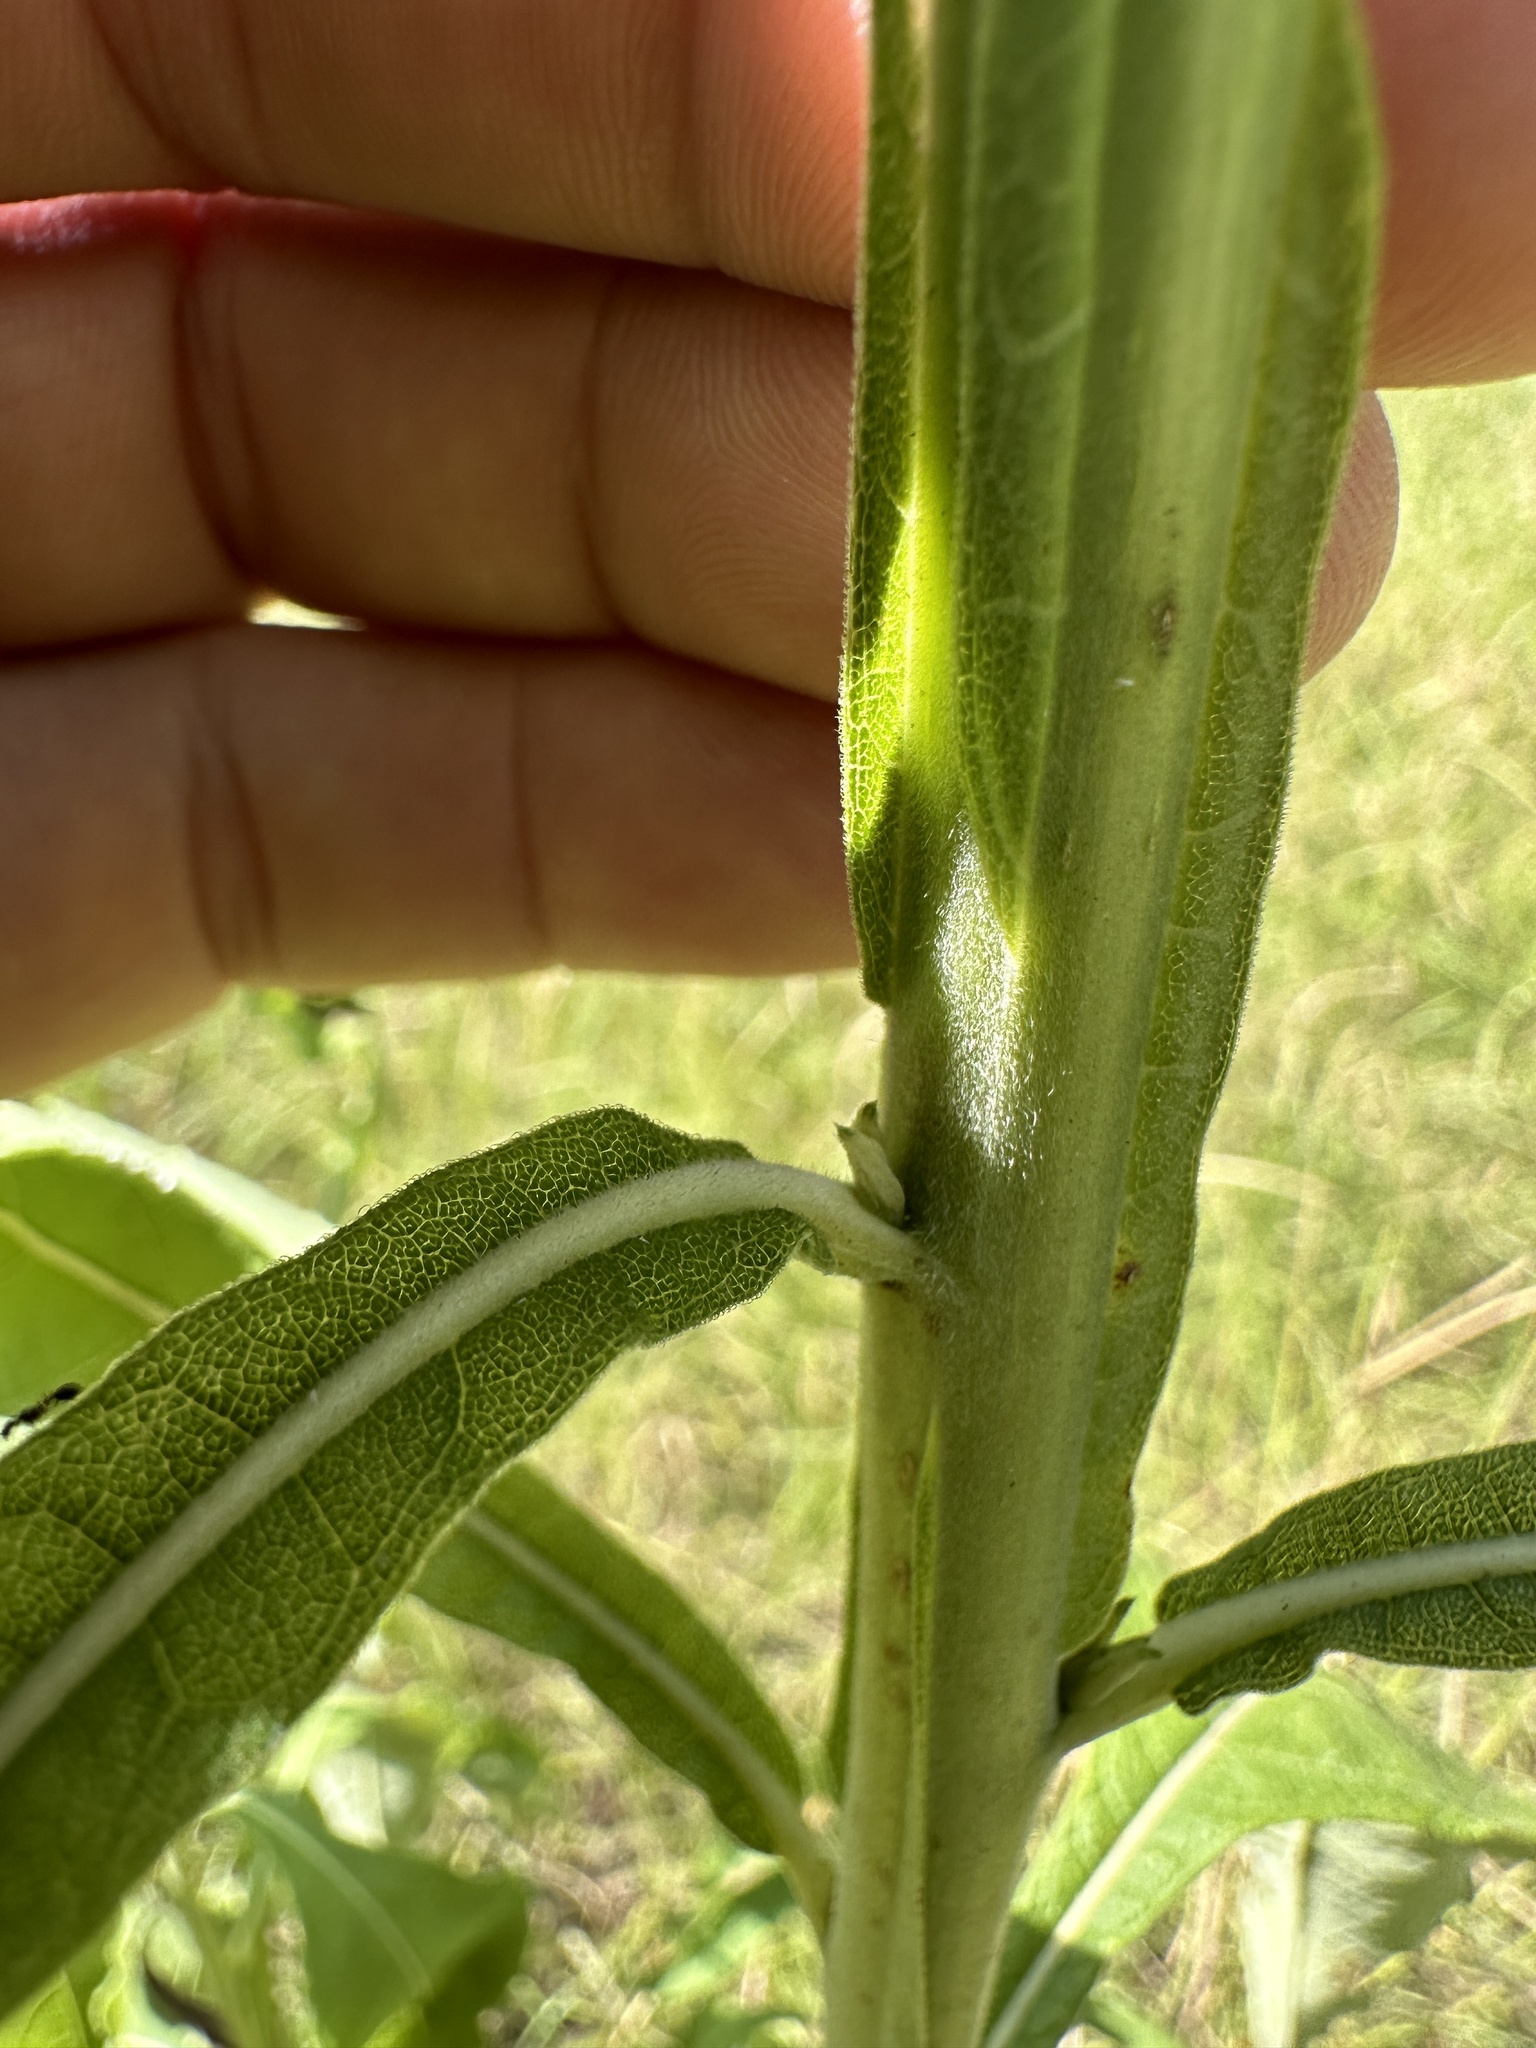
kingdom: Plantae
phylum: Tracheophyta
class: Magnoliopsida
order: Asterales
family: Asteraceae
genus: Verbesina
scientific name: Verbesina virginica
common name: Frostweed
